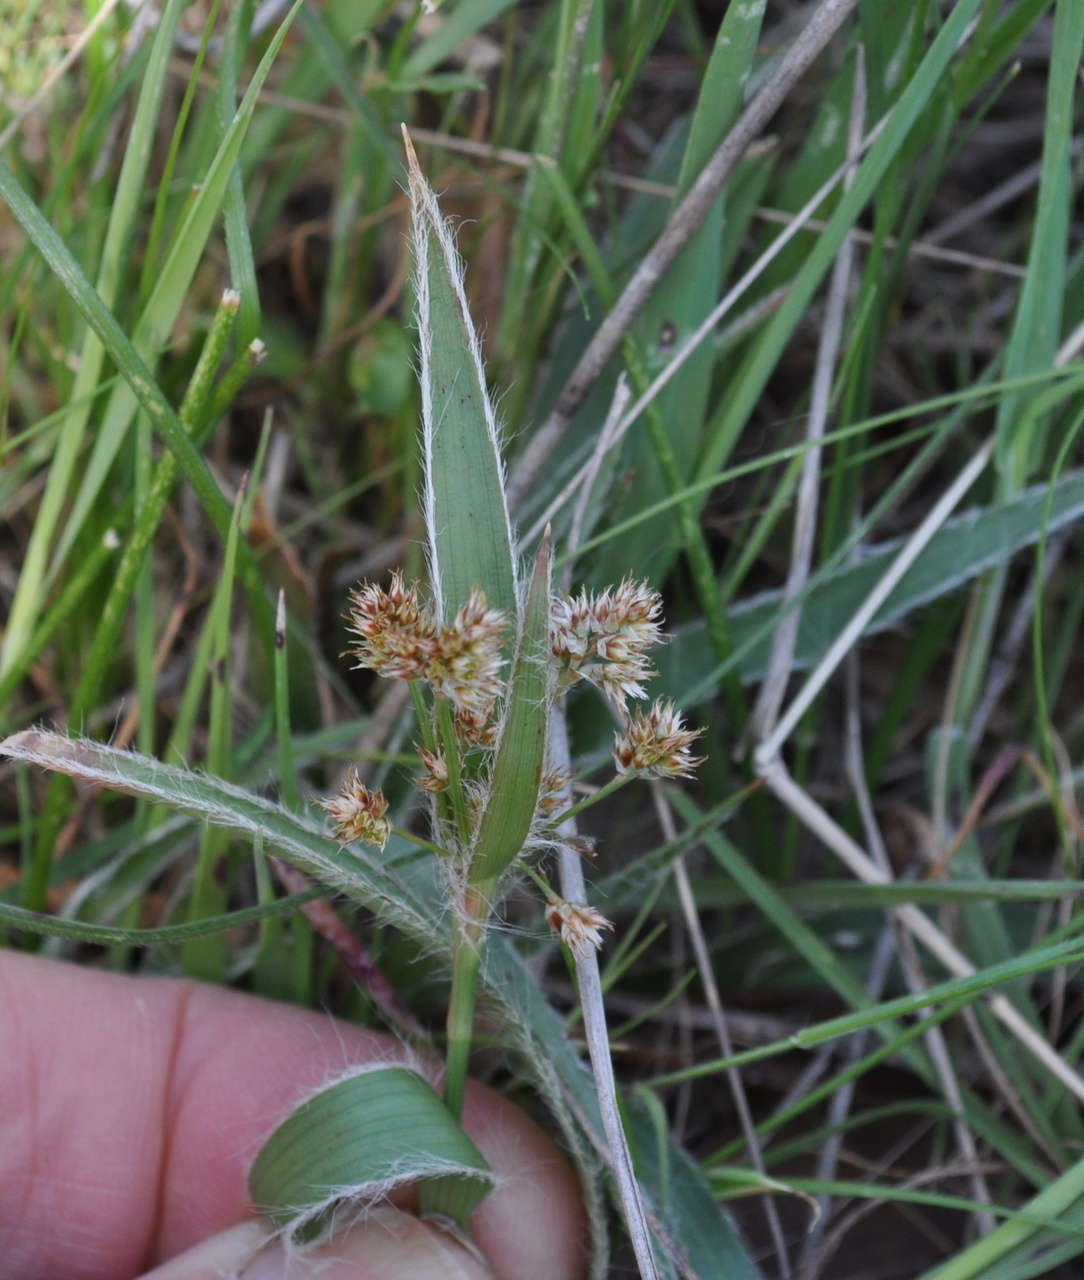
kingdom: Plantae
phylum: Tracheophyta
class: Liliopsida
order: Poales
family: Juncaceae
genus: Luzula
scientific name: Luzula meridionalis
